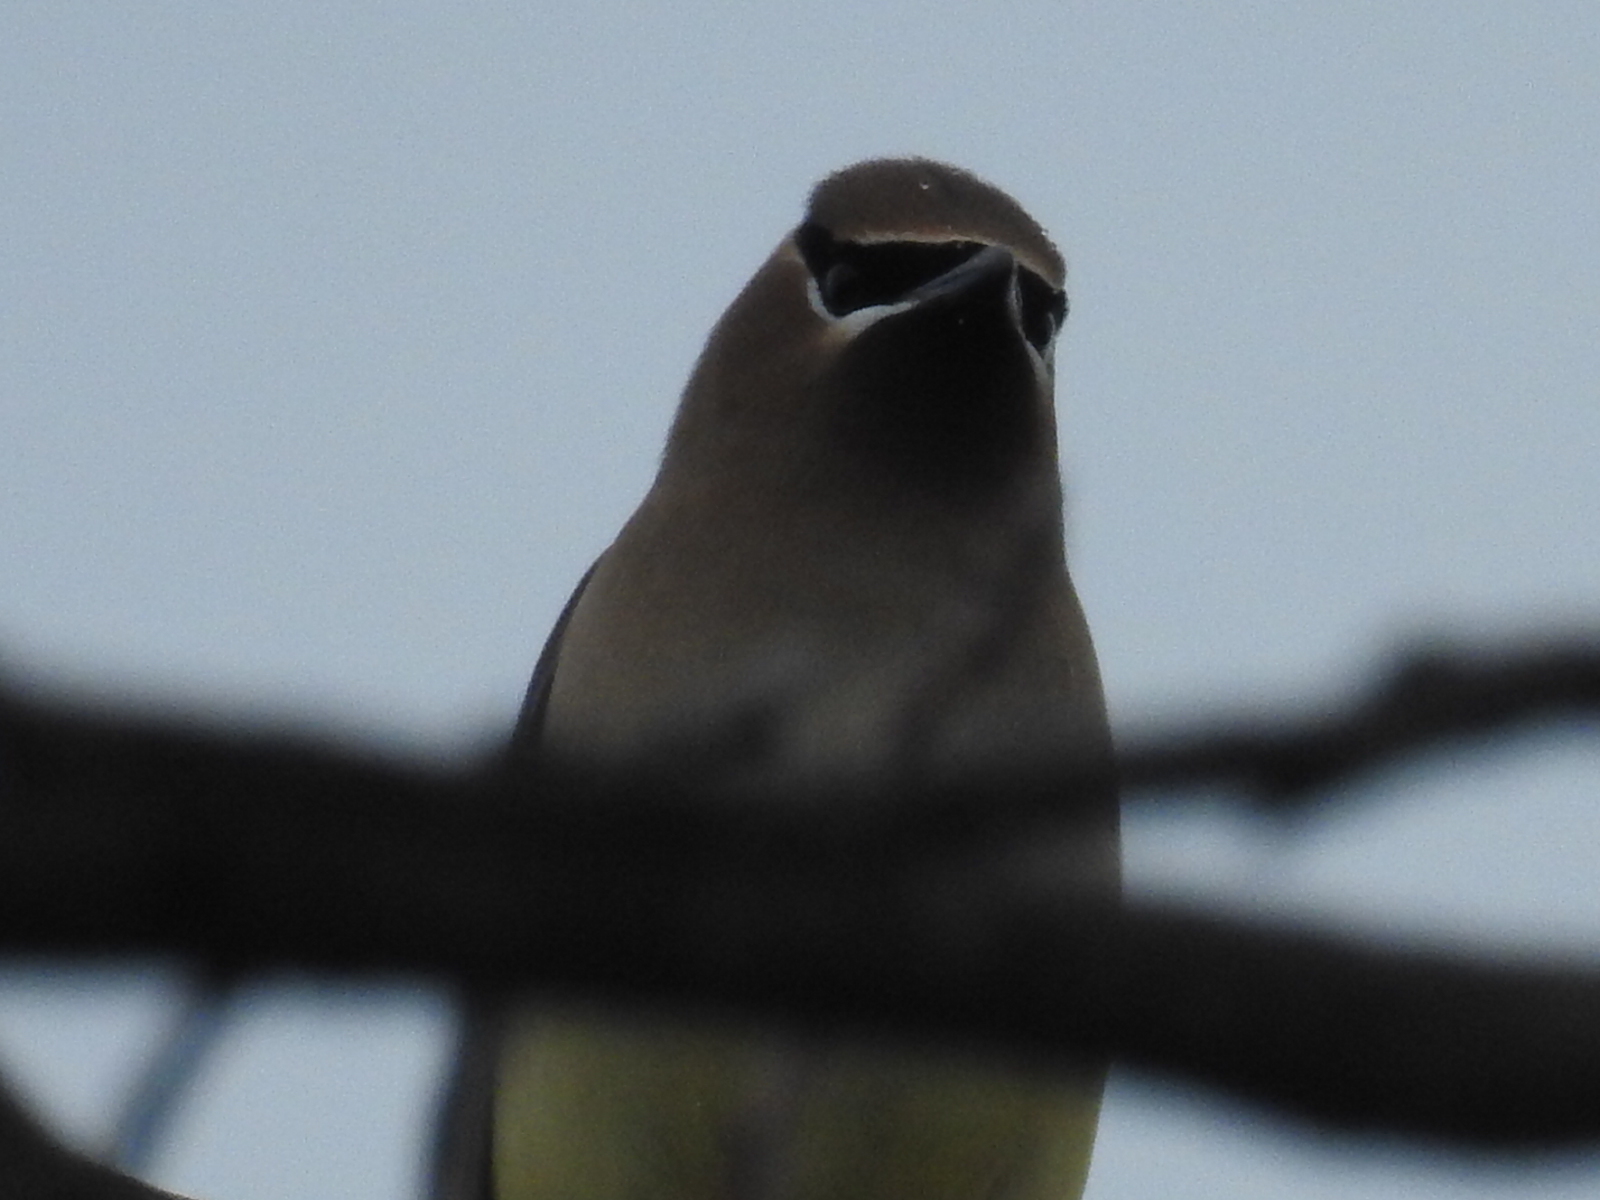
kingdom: Animalia
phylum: Chordata
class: Aves
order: Passeriformes
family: Bombycillidae
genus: Bombycilla
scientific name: Bombycilla cedrorum
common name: Cedar waxwing
